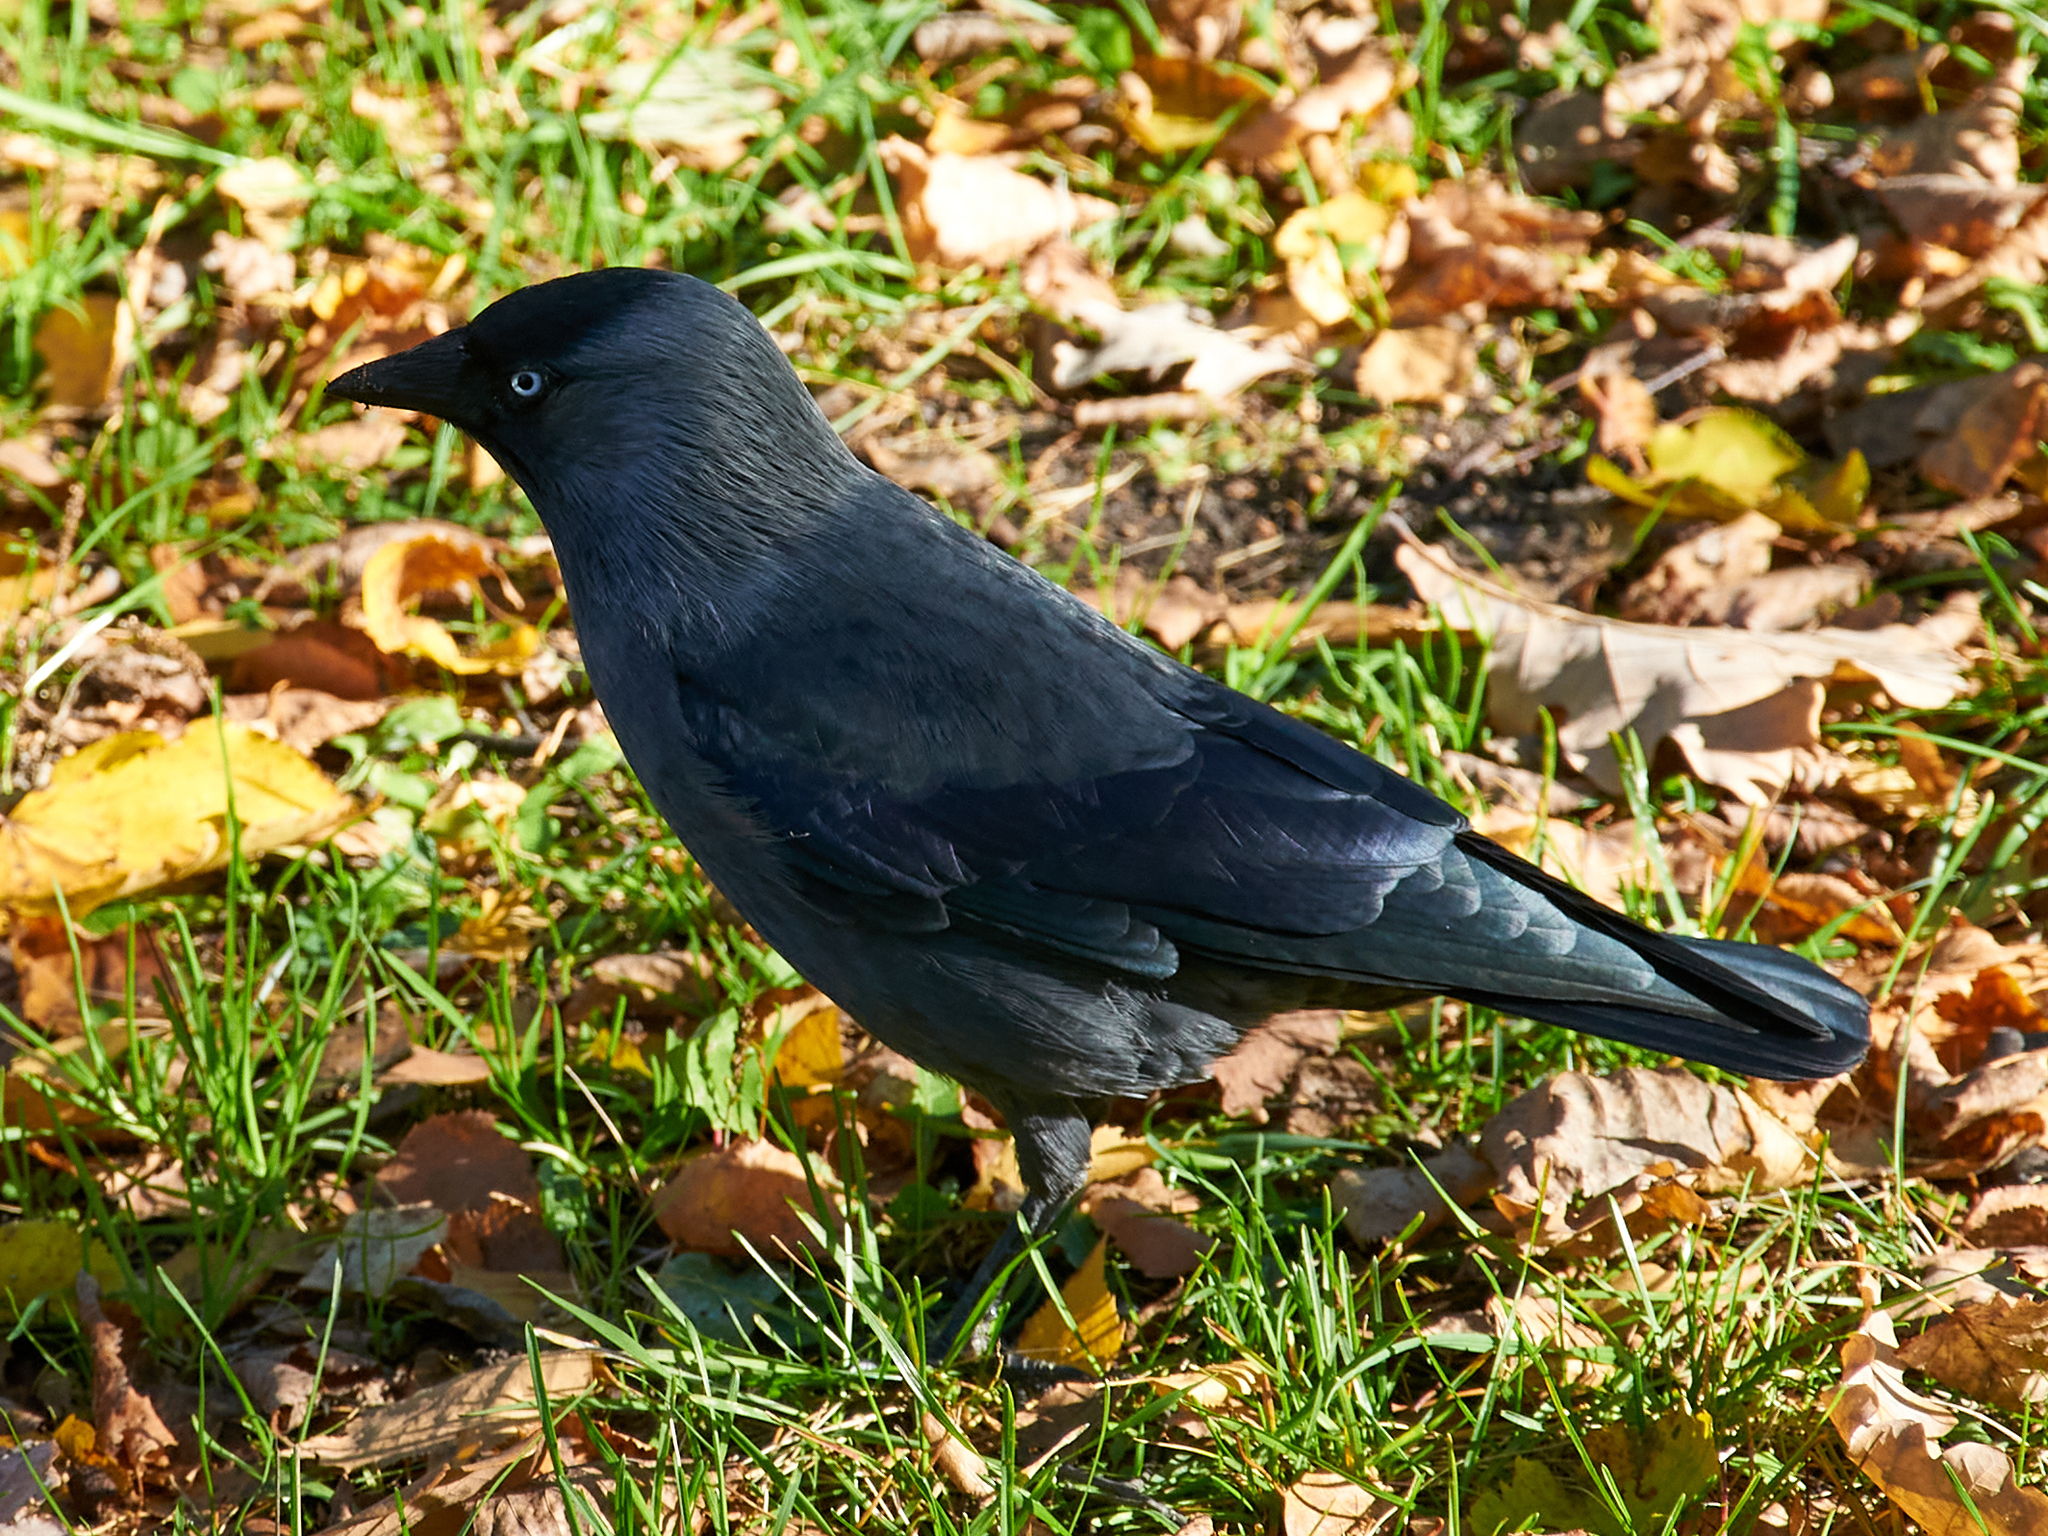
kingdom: Animalia
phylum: Chordata
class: Aves
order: Passeriformes
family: Corvidae
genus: Coloeus
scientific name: Coloeus monedula
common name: Western jackdaw
